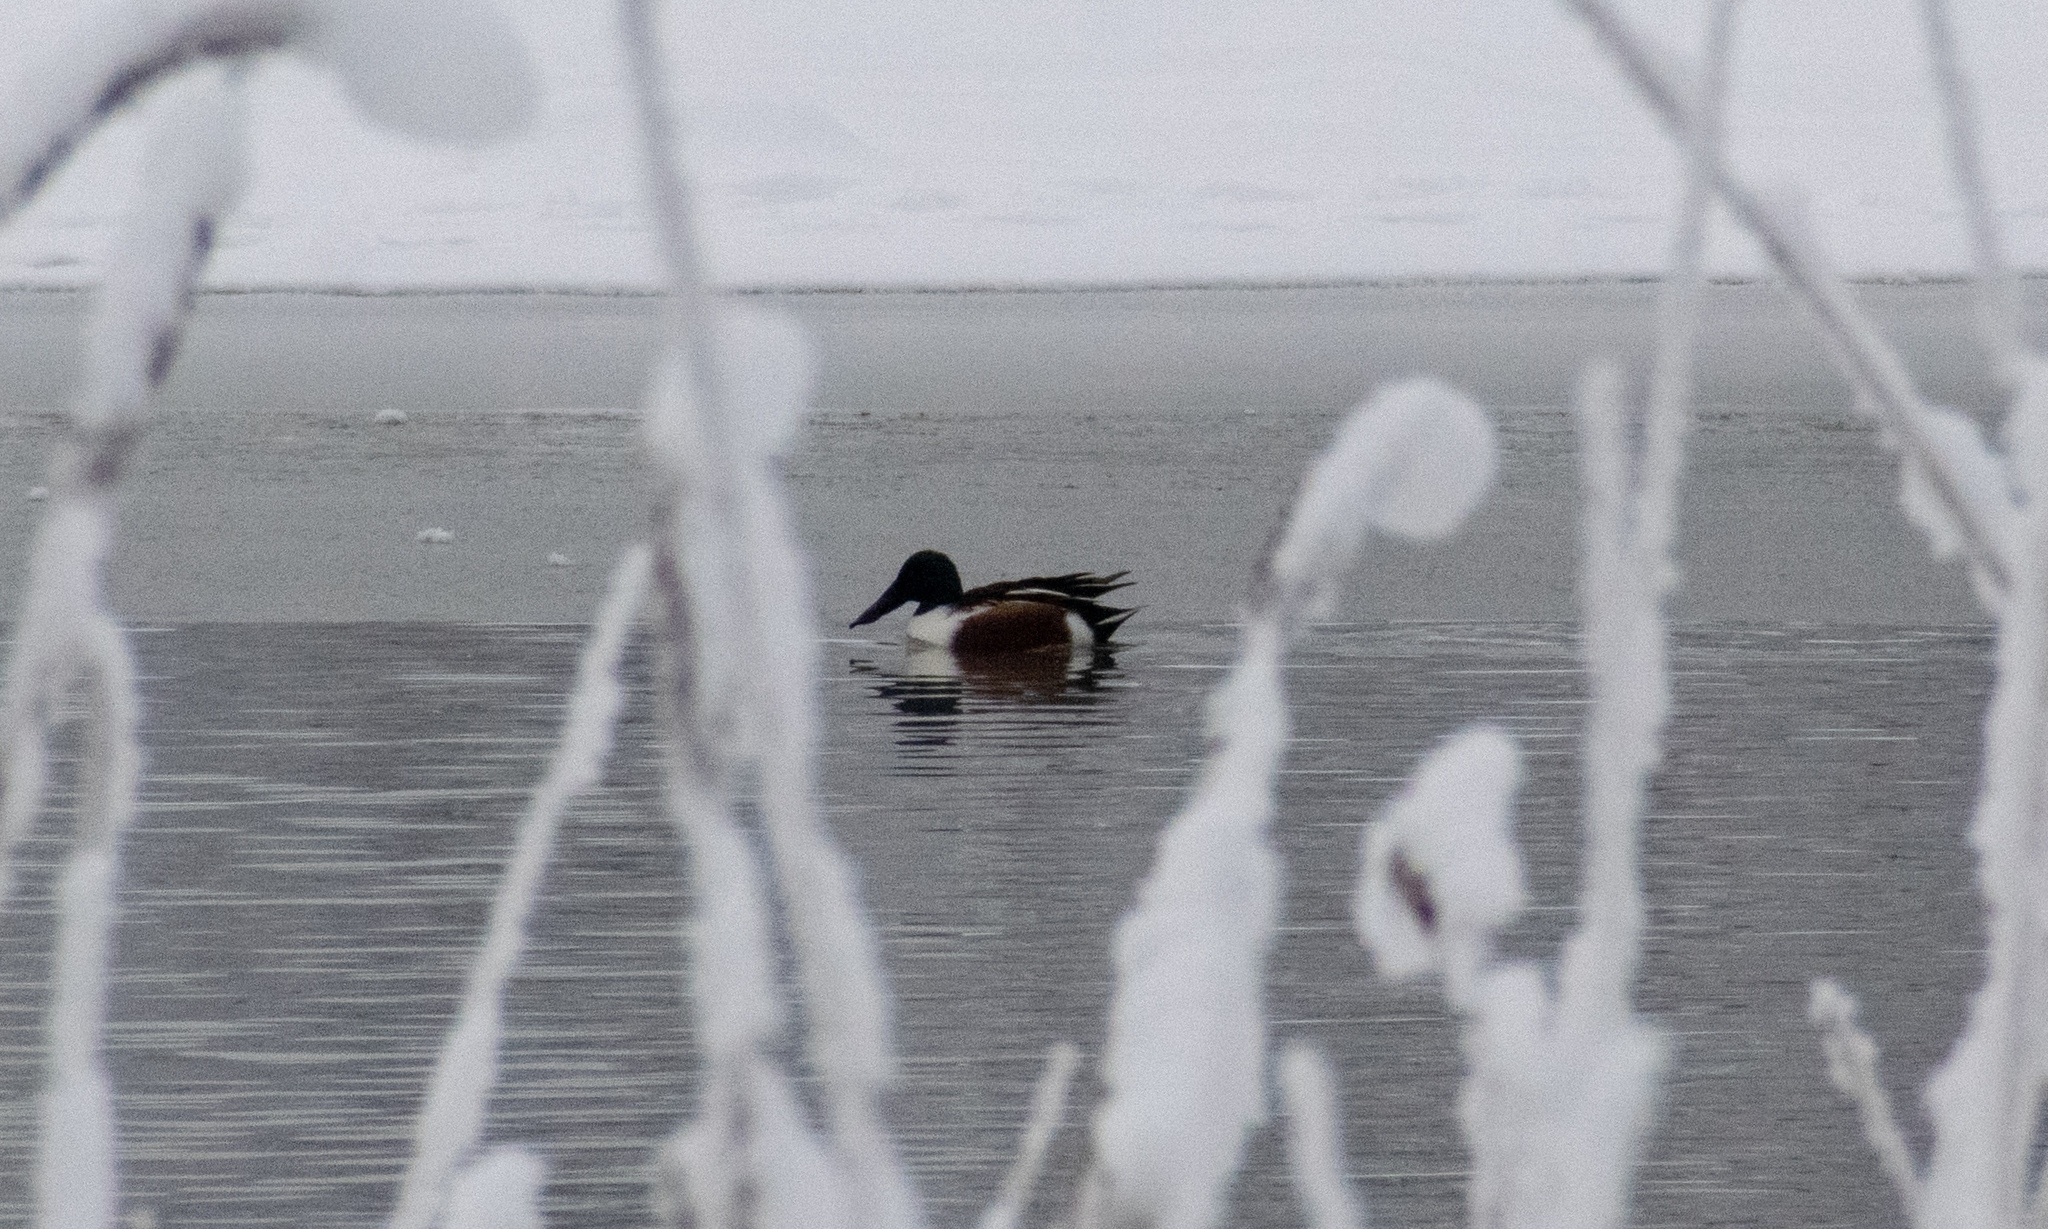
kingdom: Animalia
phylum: Chordata
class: Aves
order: Anseriformes
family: Anatidae
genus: Spatula
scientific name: Spatula clypeata
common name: Northern shoveler
